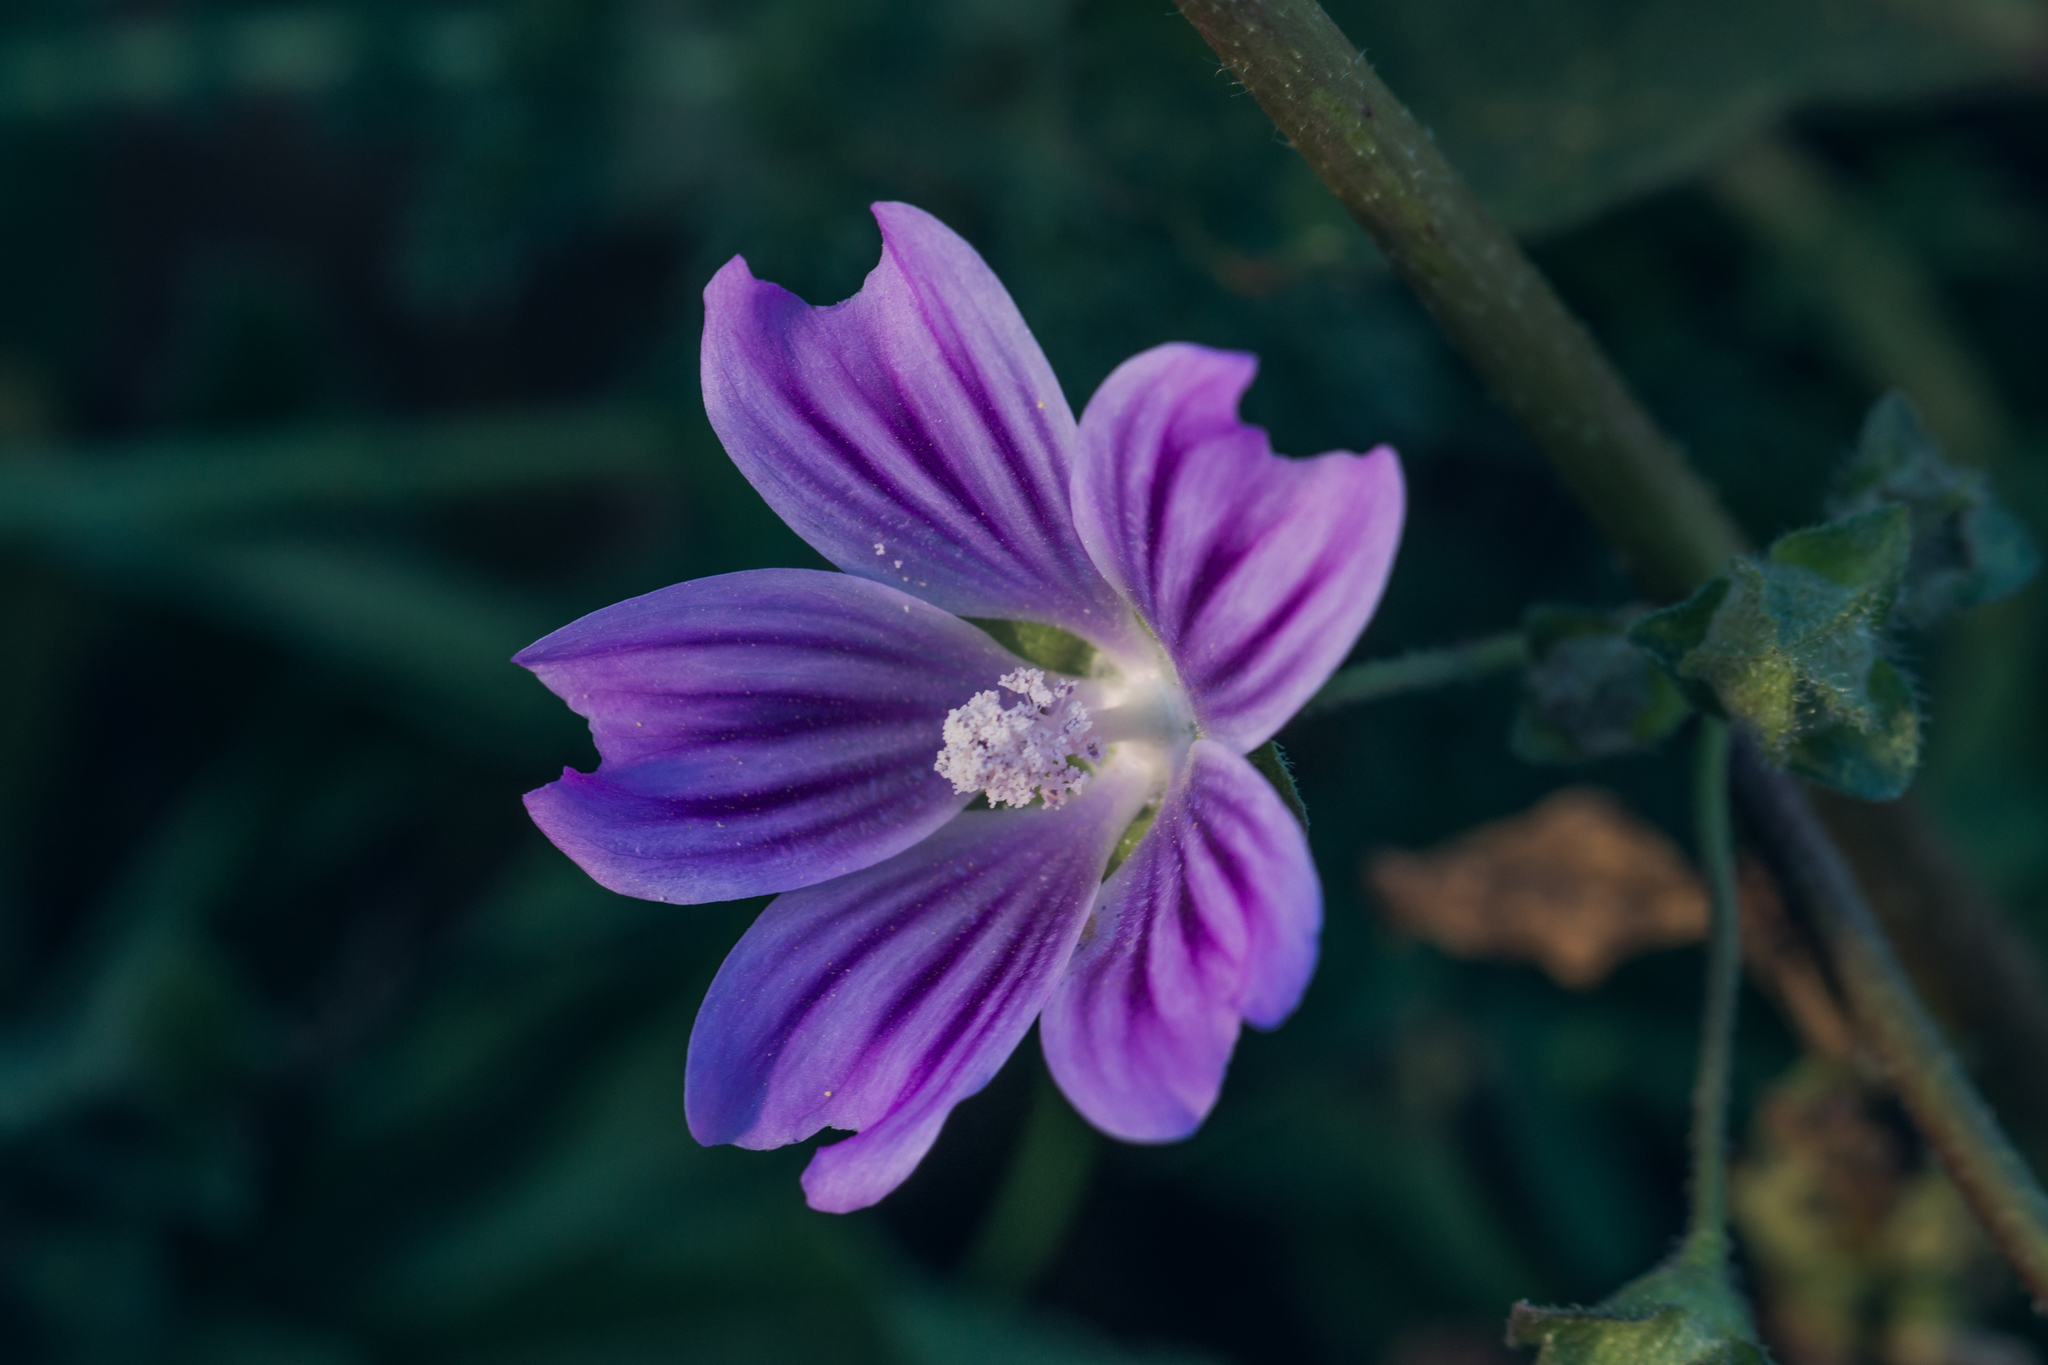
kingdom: Plantae
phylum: Tracheophyta
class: Magnoliopsida
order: Malvales
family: Malvaceae
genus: Malva
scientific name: Malva sylvestris
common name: Common mallow
